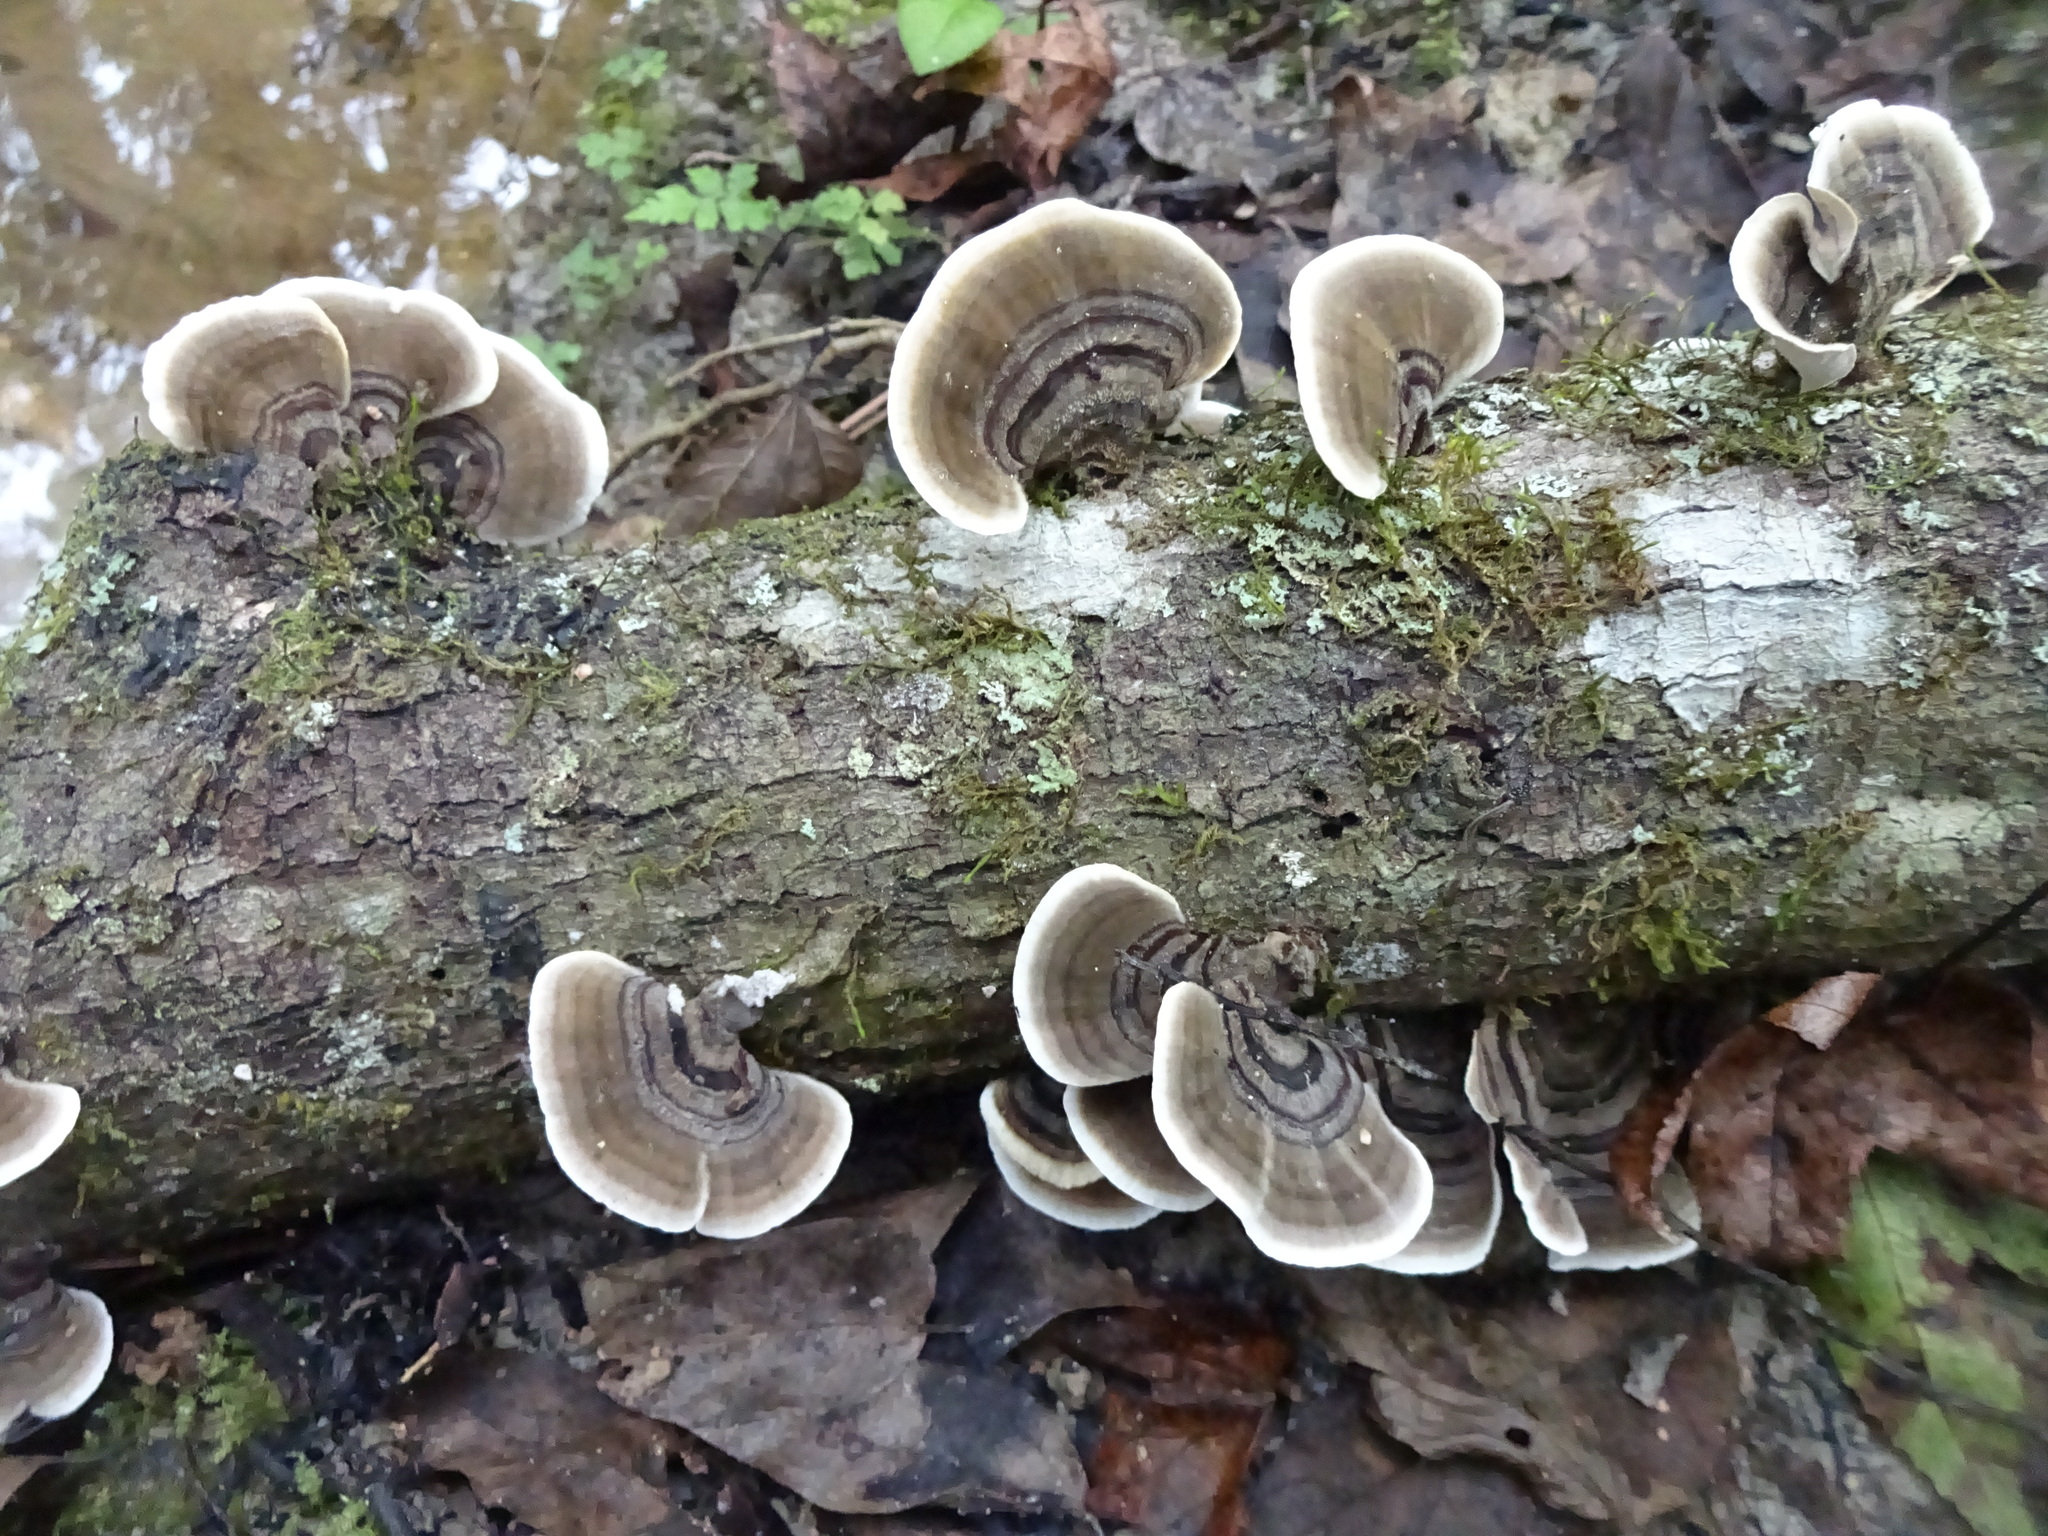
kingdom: Fungi
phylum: Basidiomycota
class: Agaricomycetes
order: Polyporales
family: Polyporaceae
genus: Trametes
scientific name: Trametes versicolor
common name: Turkeytail
